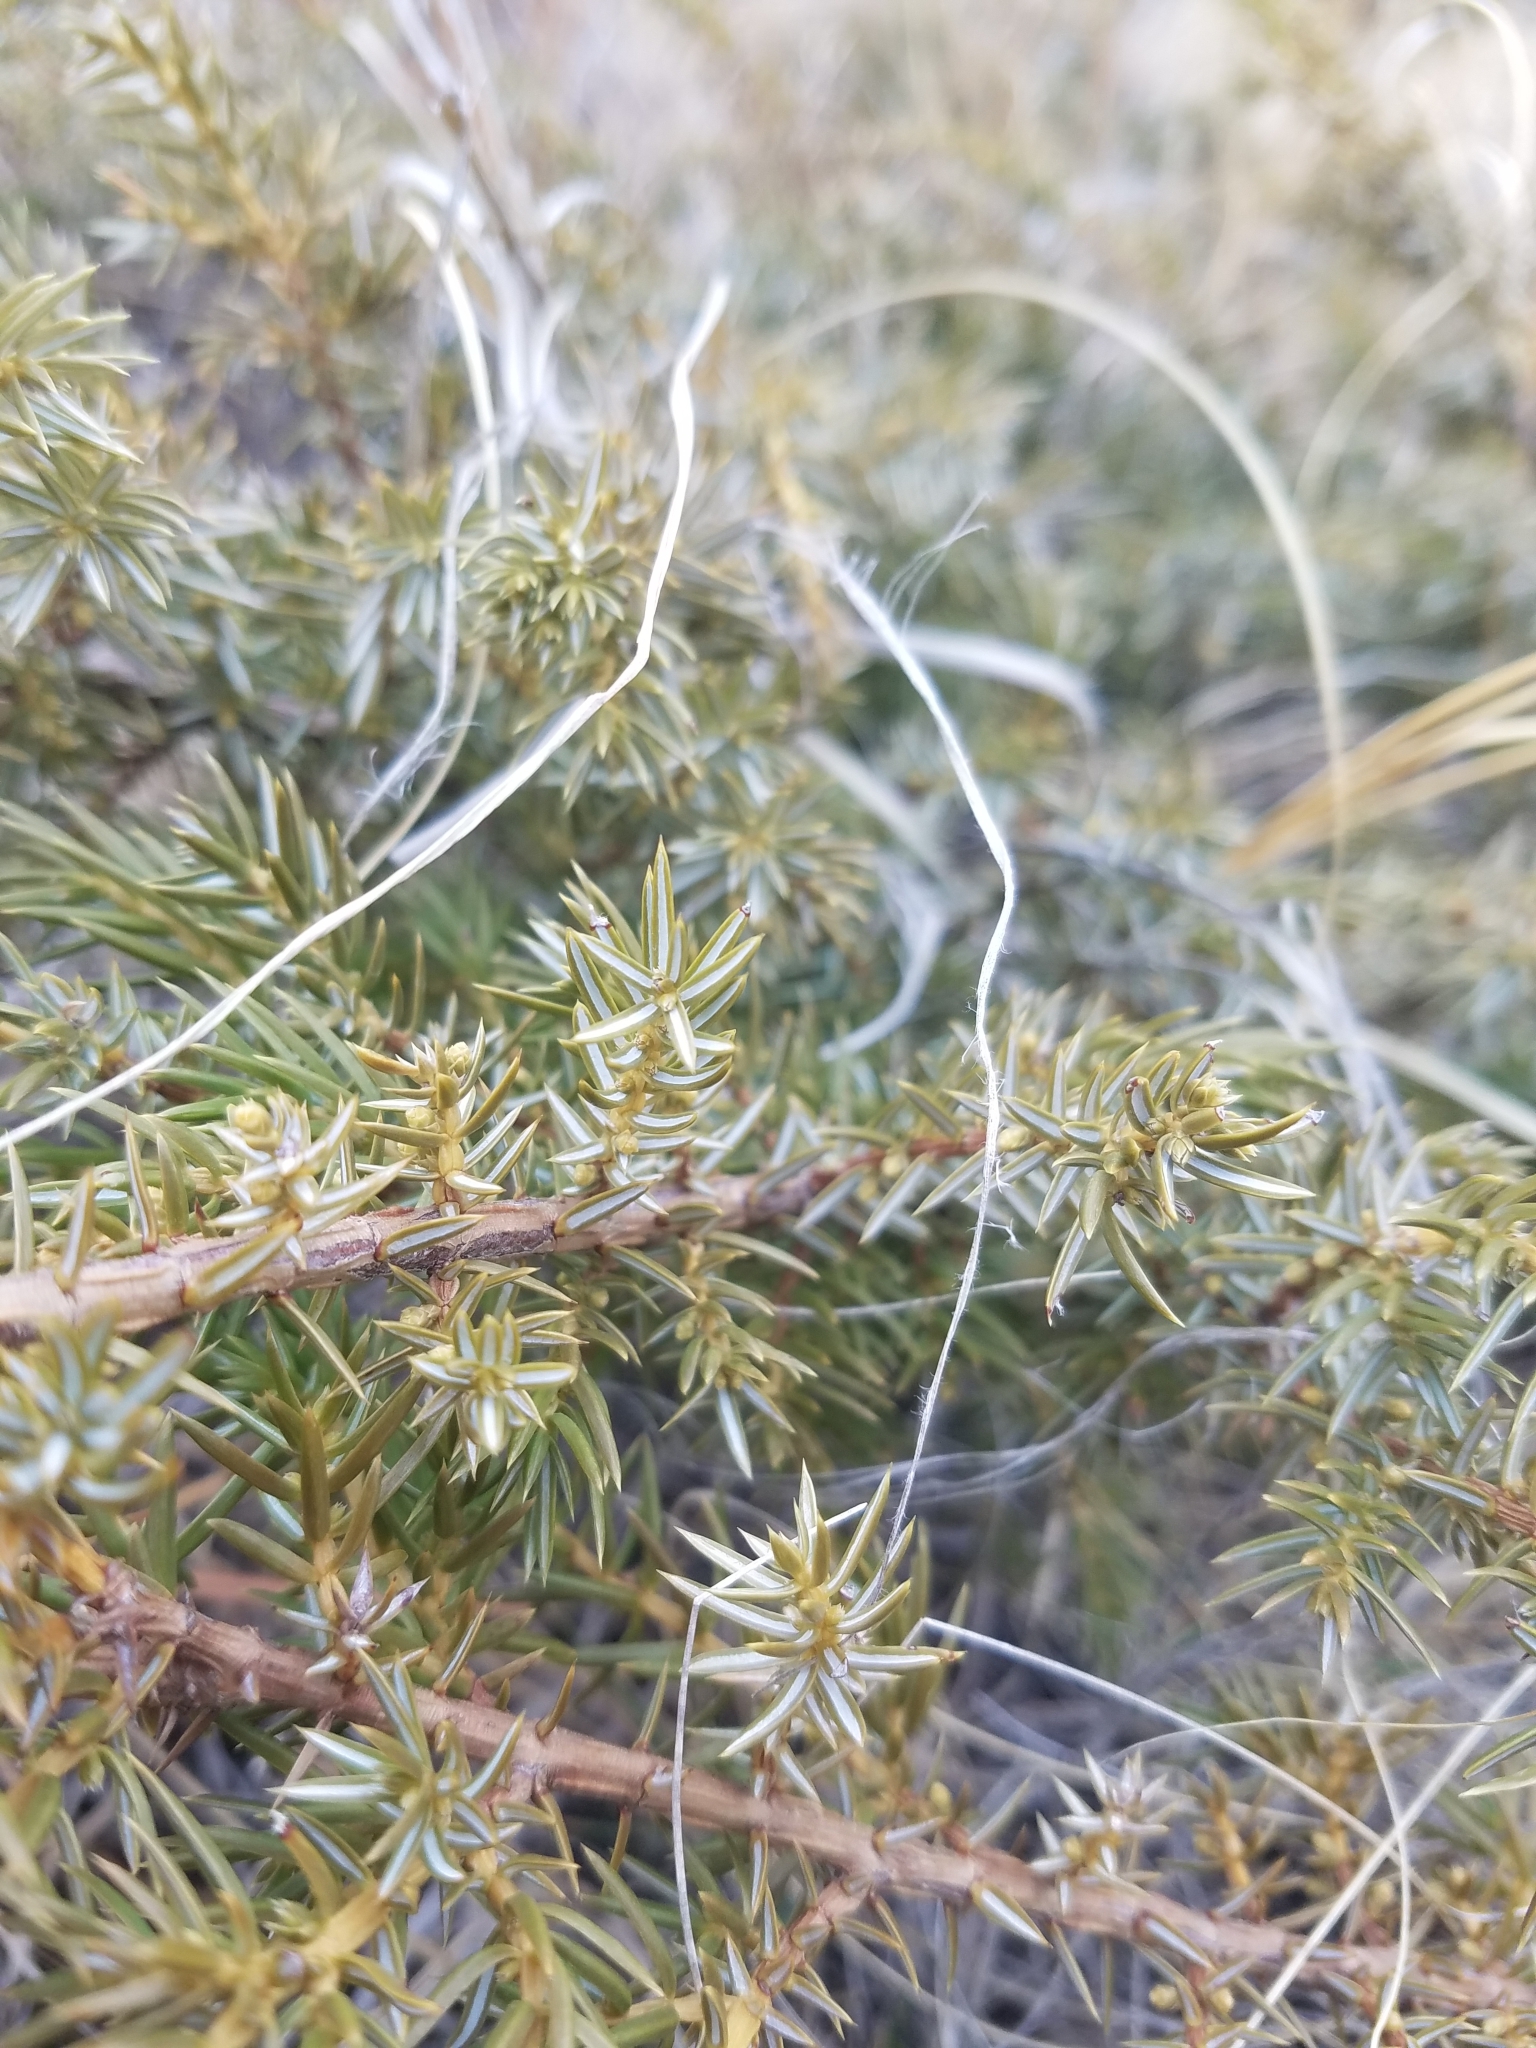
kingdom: Plantae
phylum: Tracheophyta
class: Pinopsida
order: Pinales
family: Cupressaceae
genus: Juniperus
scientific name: Juniperus communis
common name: Common juniper
